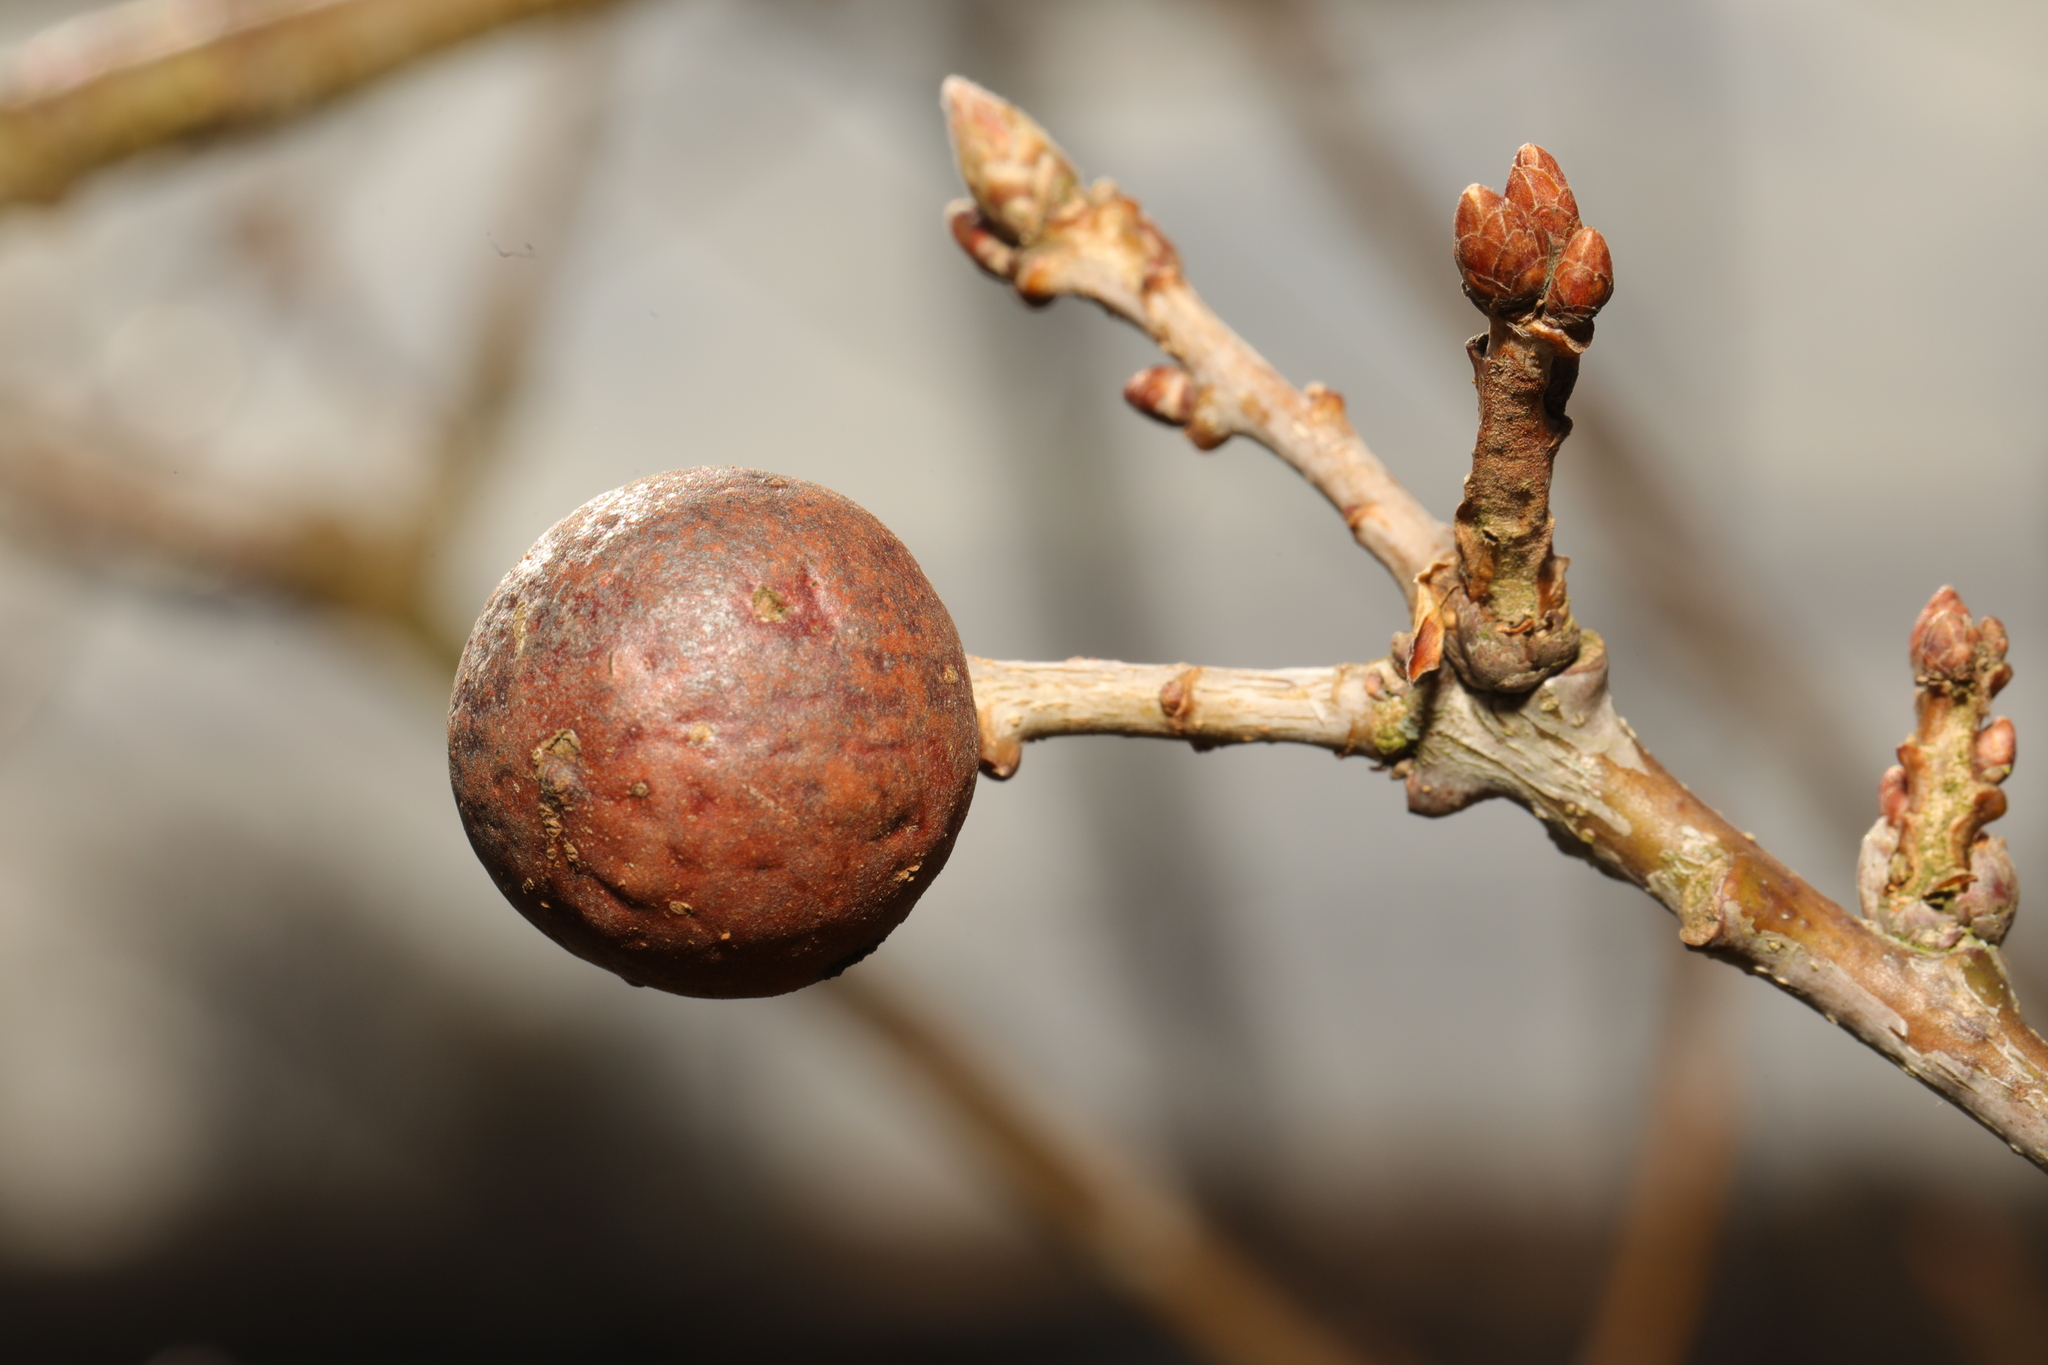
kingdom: Animalia
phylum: Arthropoda
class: Insecta
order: Hymenoptera
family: Cynipidae
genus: Andricus
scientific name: Andricus kollari
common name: Marble gall
